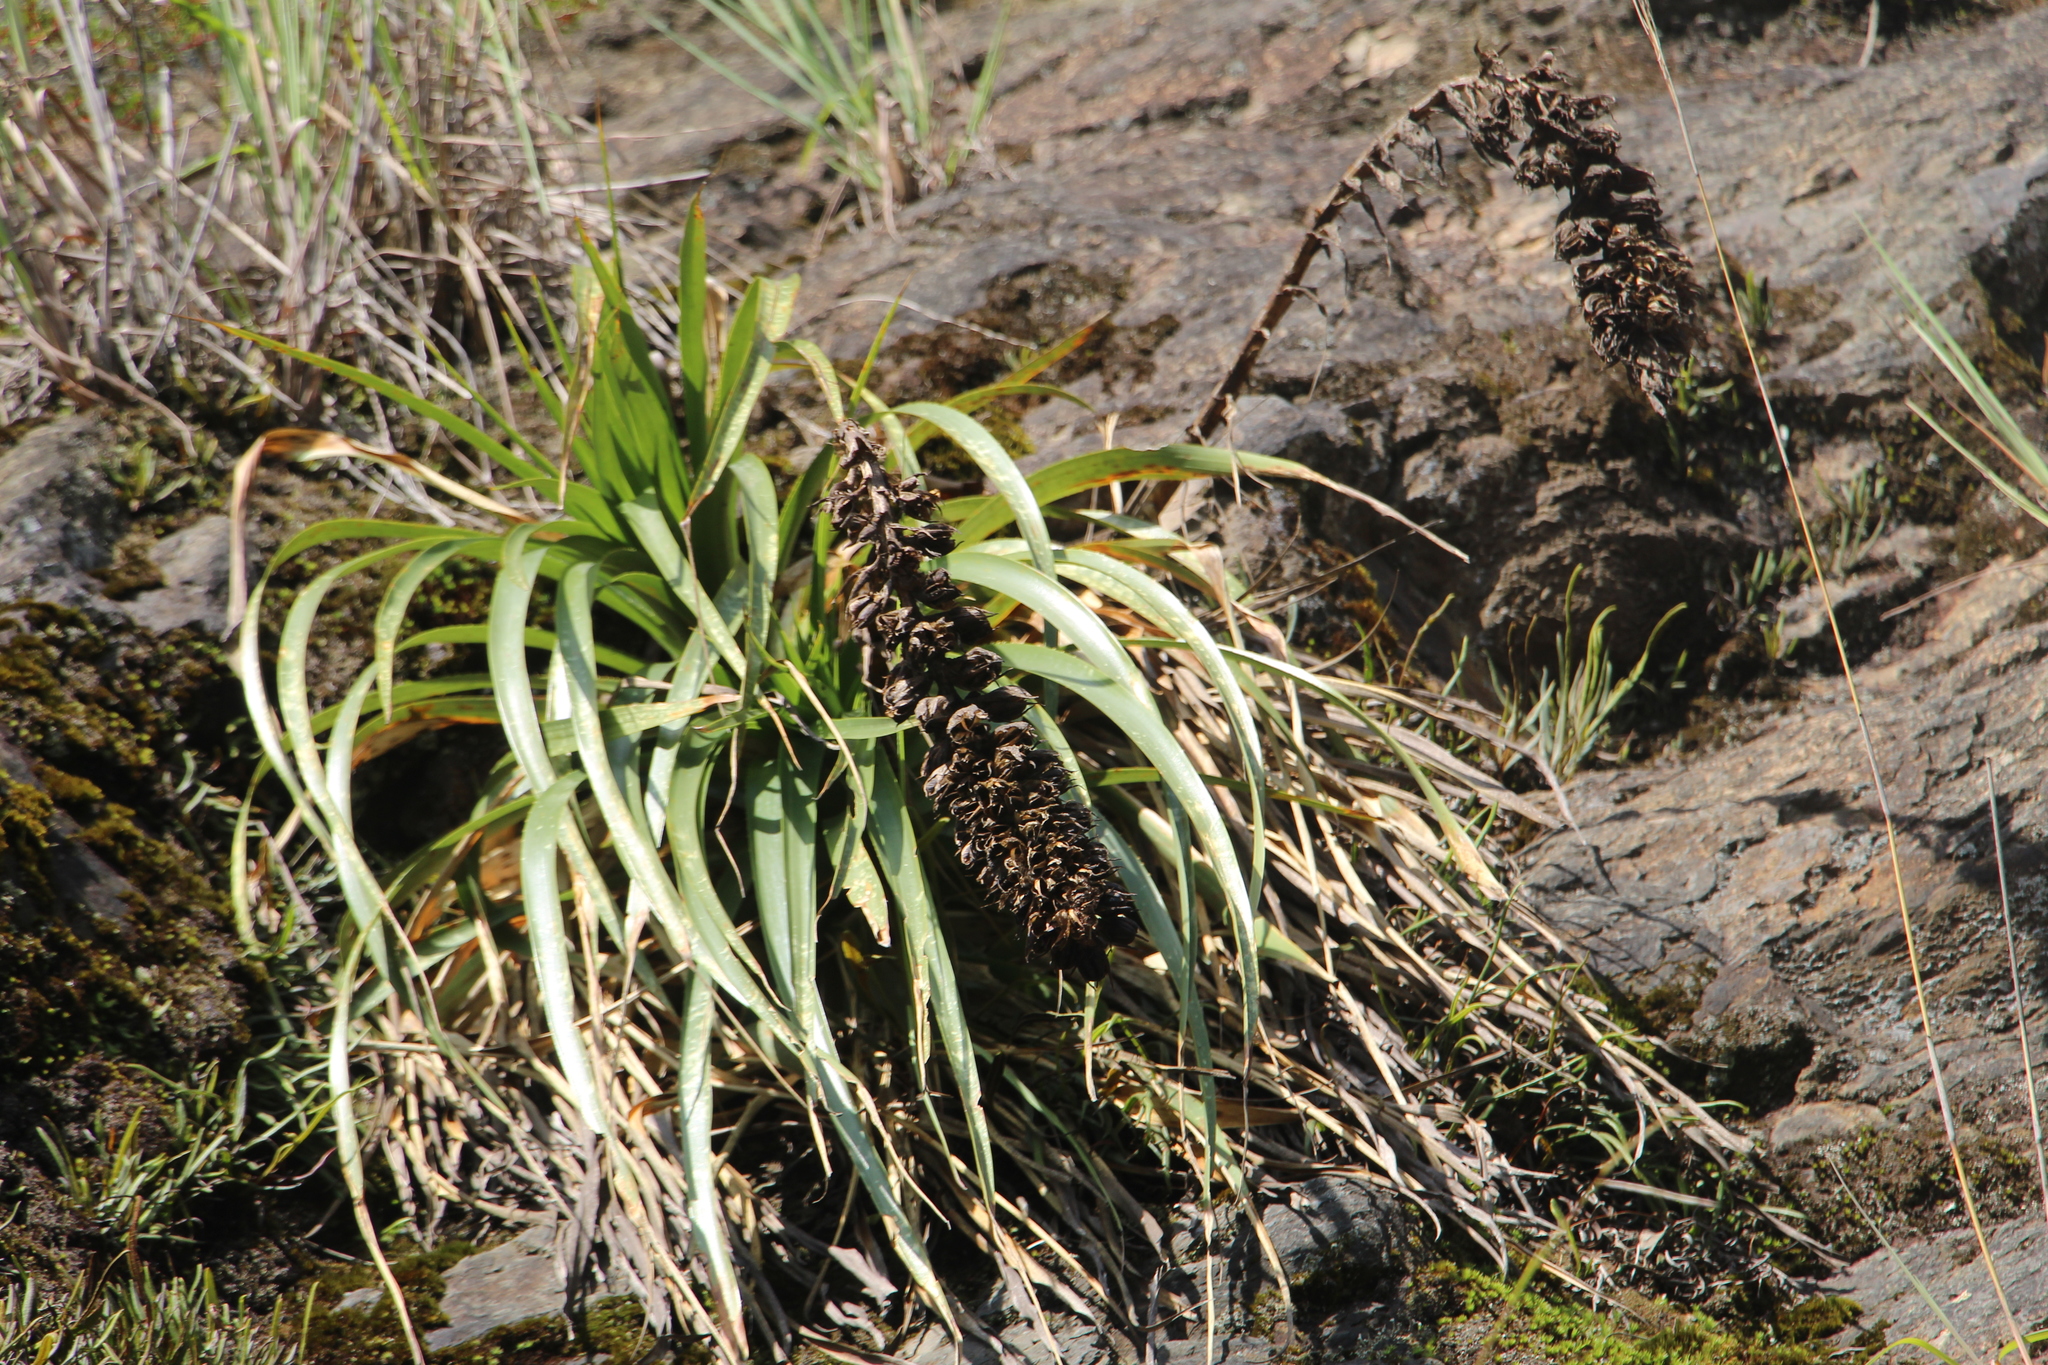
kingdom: Plantae
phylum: Tracheophyta
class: Liliopsida
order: Poales
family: Bromeliaceae
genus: Puya
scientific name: Puya
